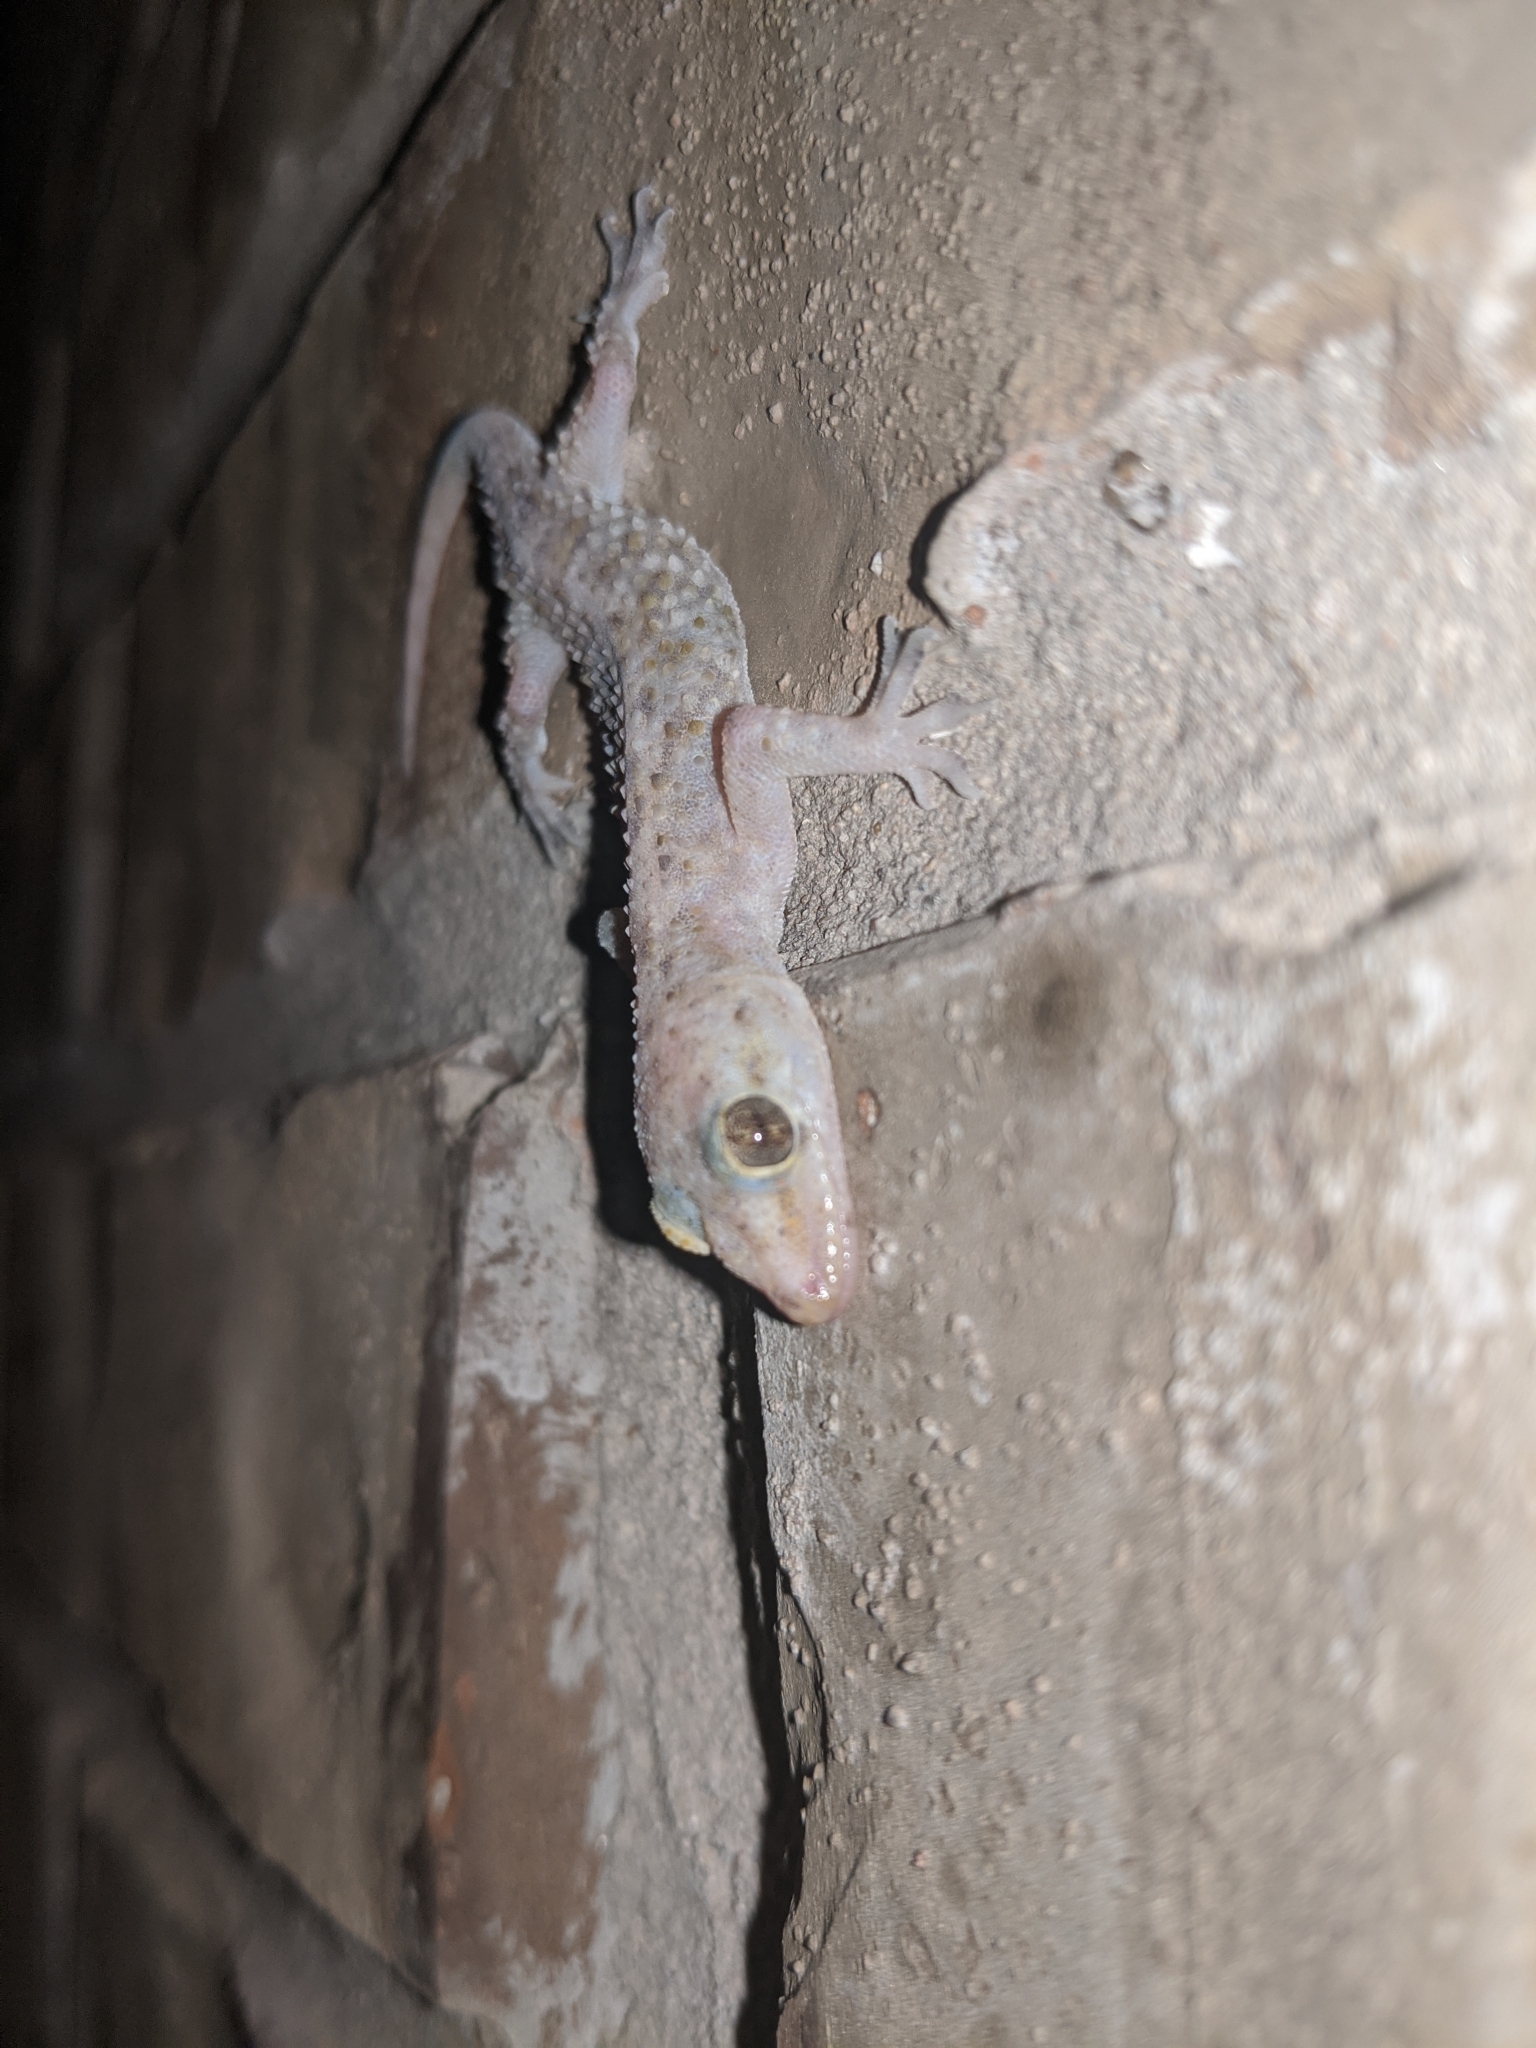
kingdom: Animalia
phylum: Chordata
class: Squamata
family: Gekkonidae
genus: Hemidactylus
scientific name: Hemidactylus turcicus
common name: Turkish gecko
